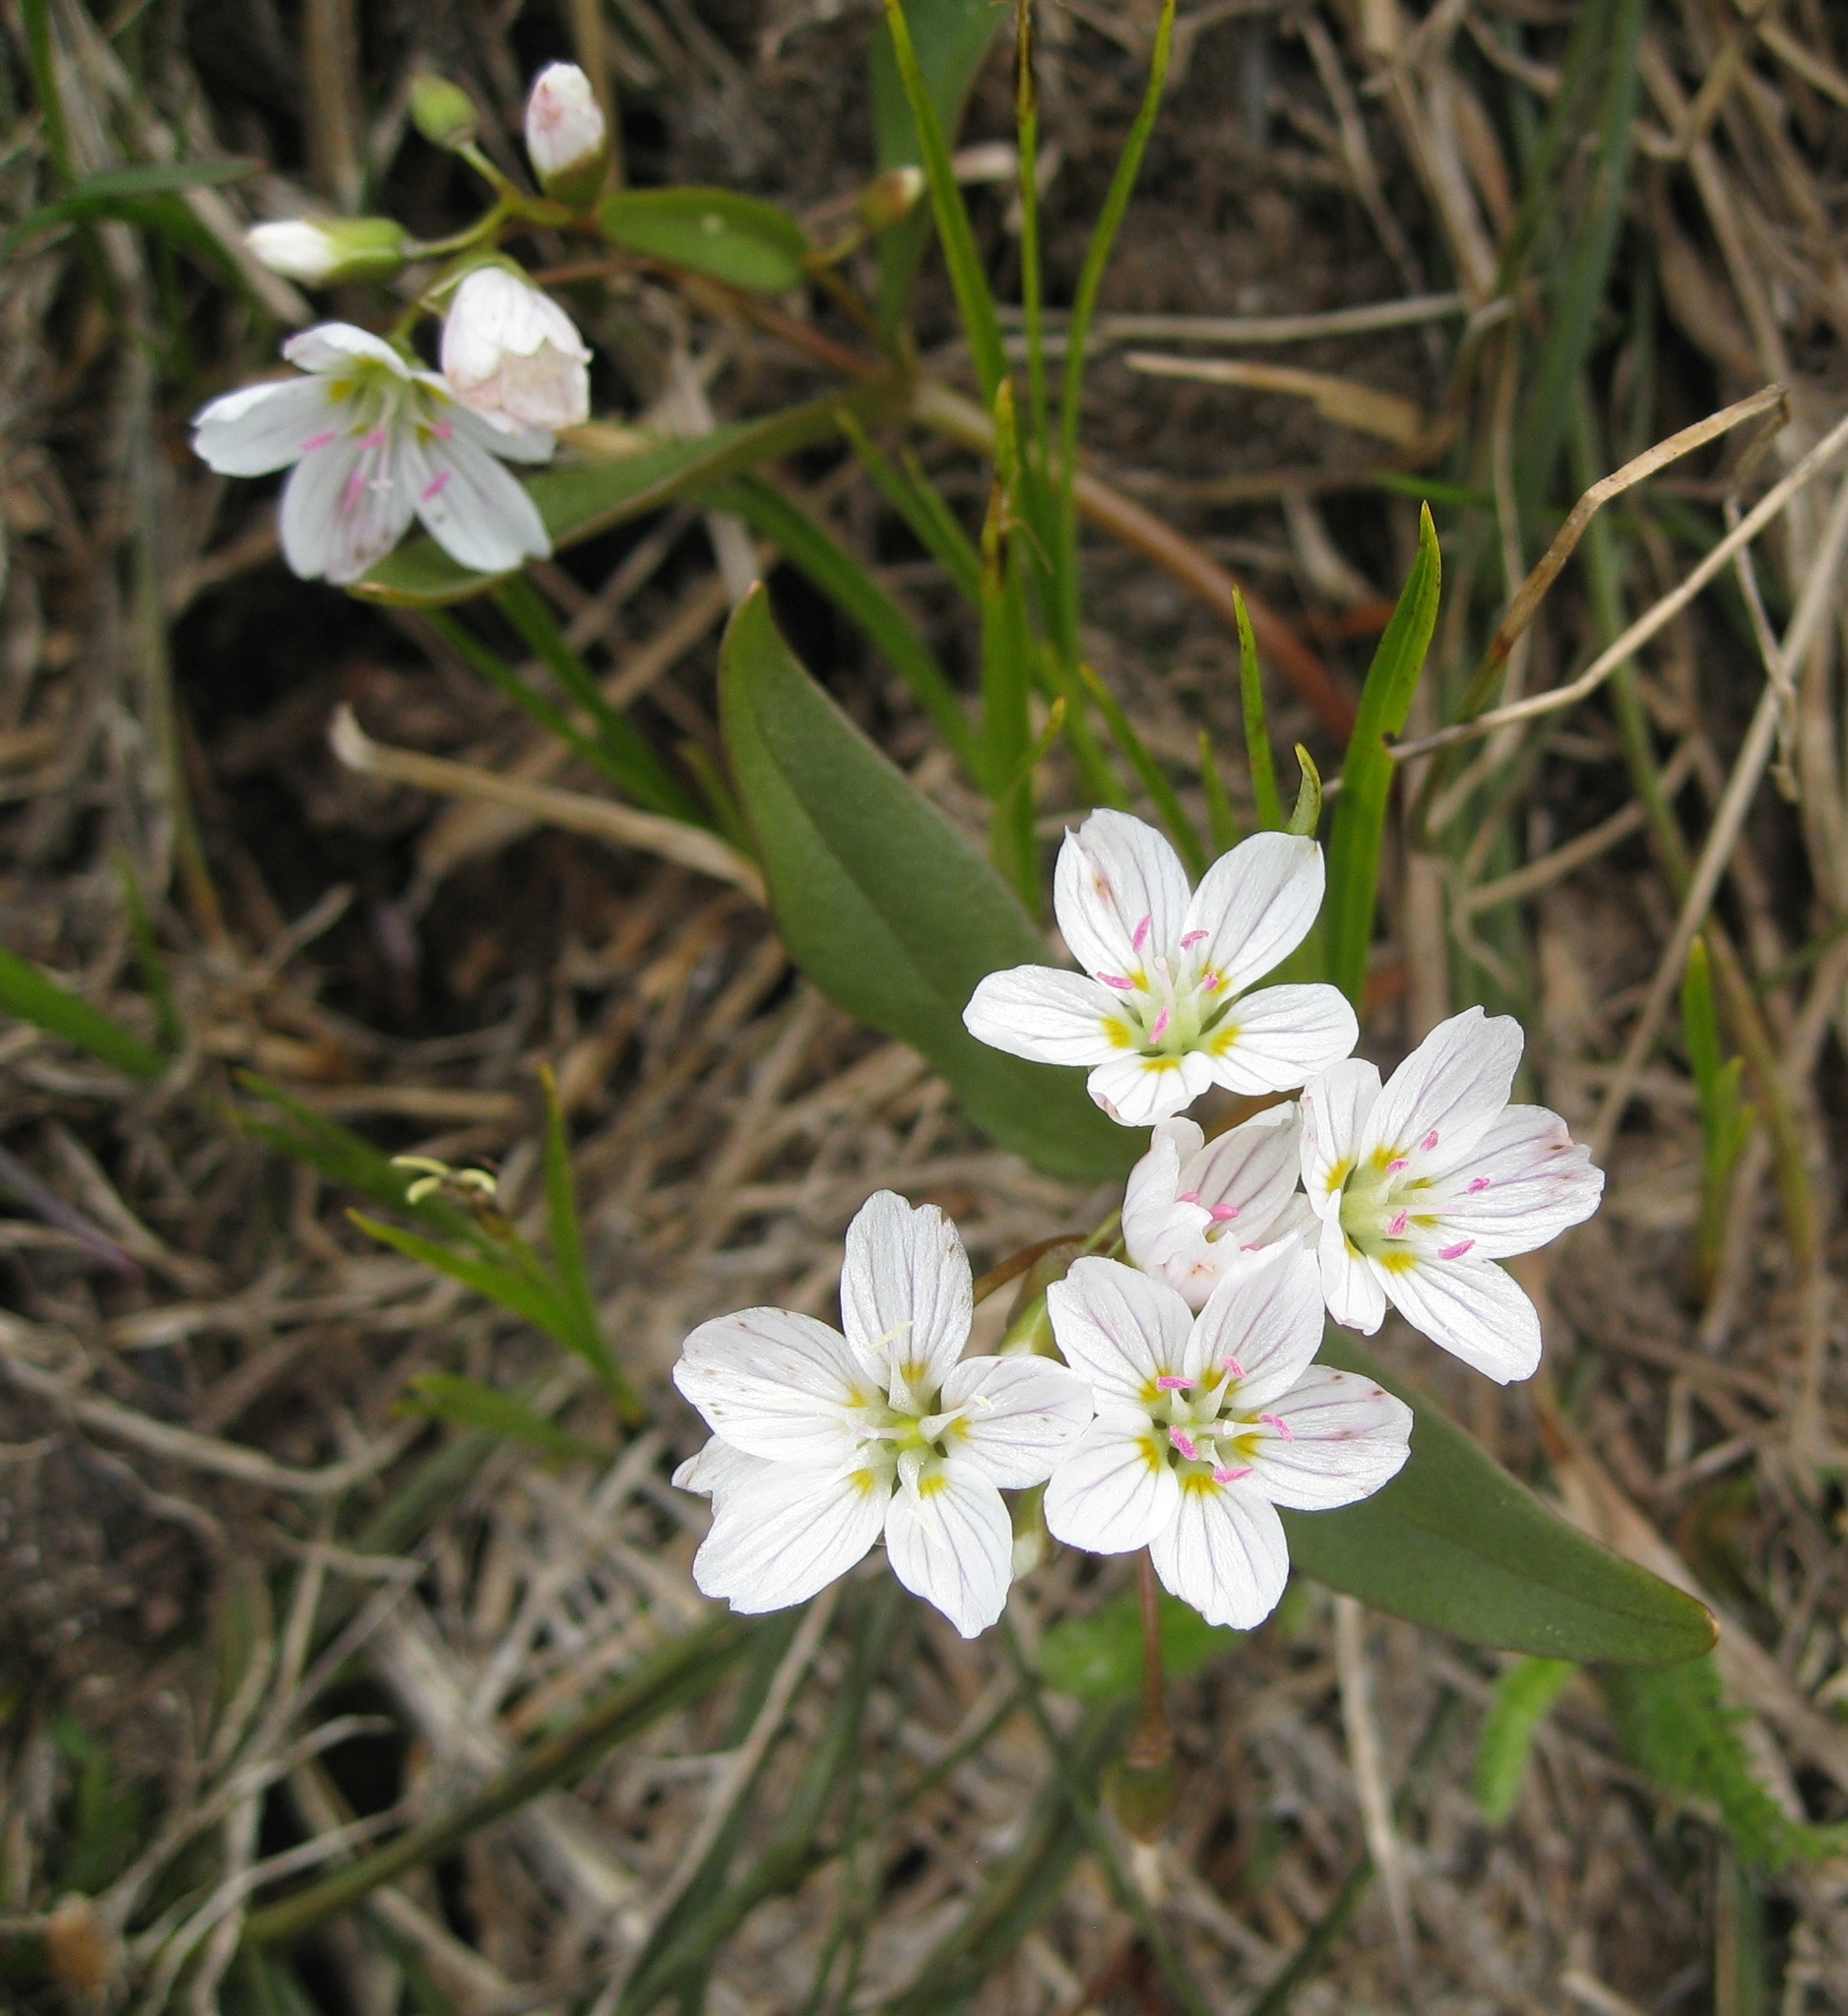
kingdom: Plantae
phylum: Tracheophyta
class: Magnoliopsida
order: Caryophyllales
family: Montiaceae
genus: Claytonia
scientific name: Claytonia lanceolata
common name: Western spring-beauty
